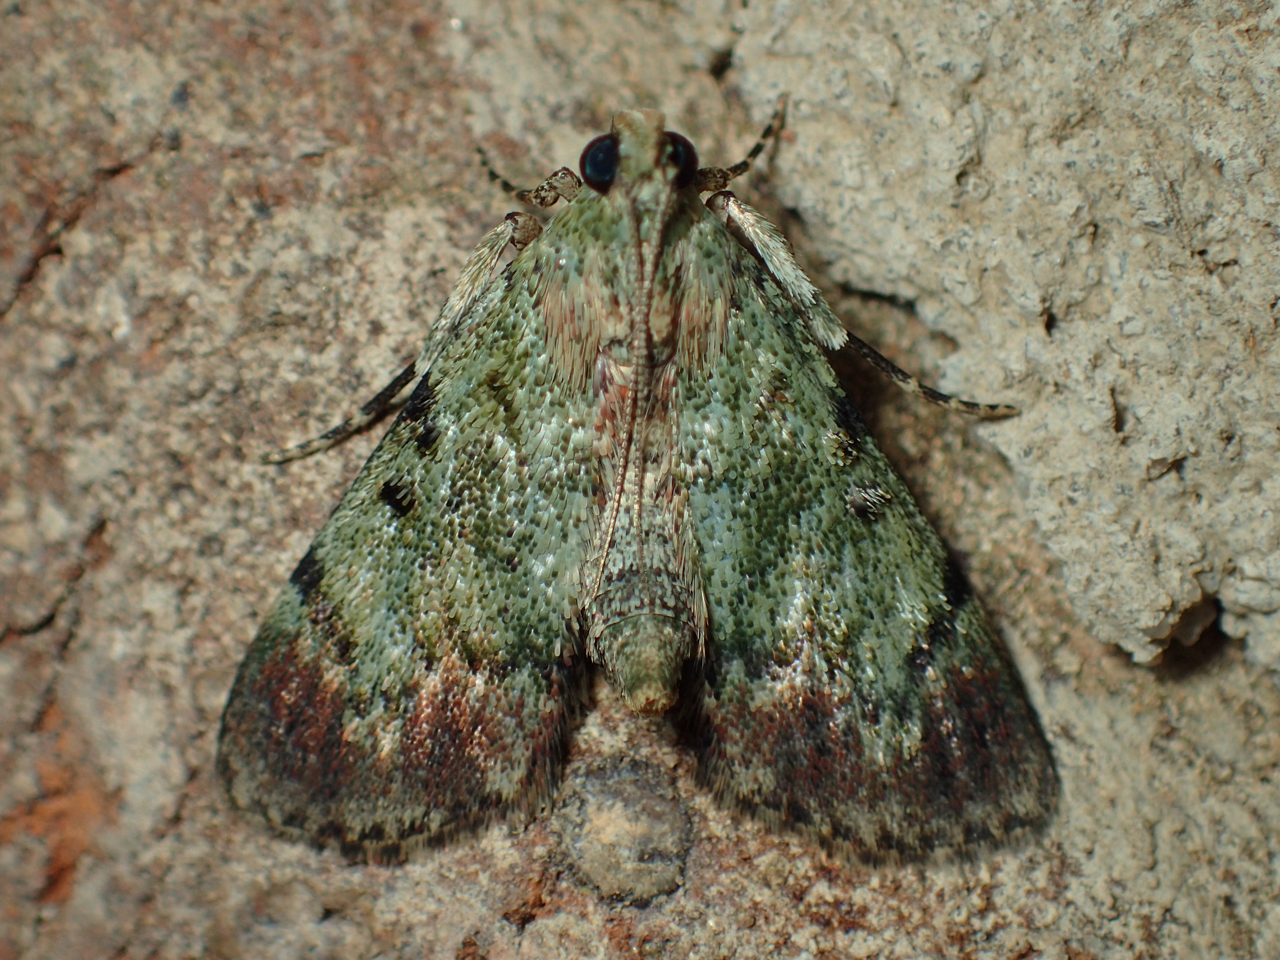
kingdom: Animalia
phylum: Arthropoda
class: Insecta
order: Lepidoptera
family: Pyralidae
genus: Epipaschia
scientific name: Epipaschia superatalis
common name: Dimorphic macalla moth
